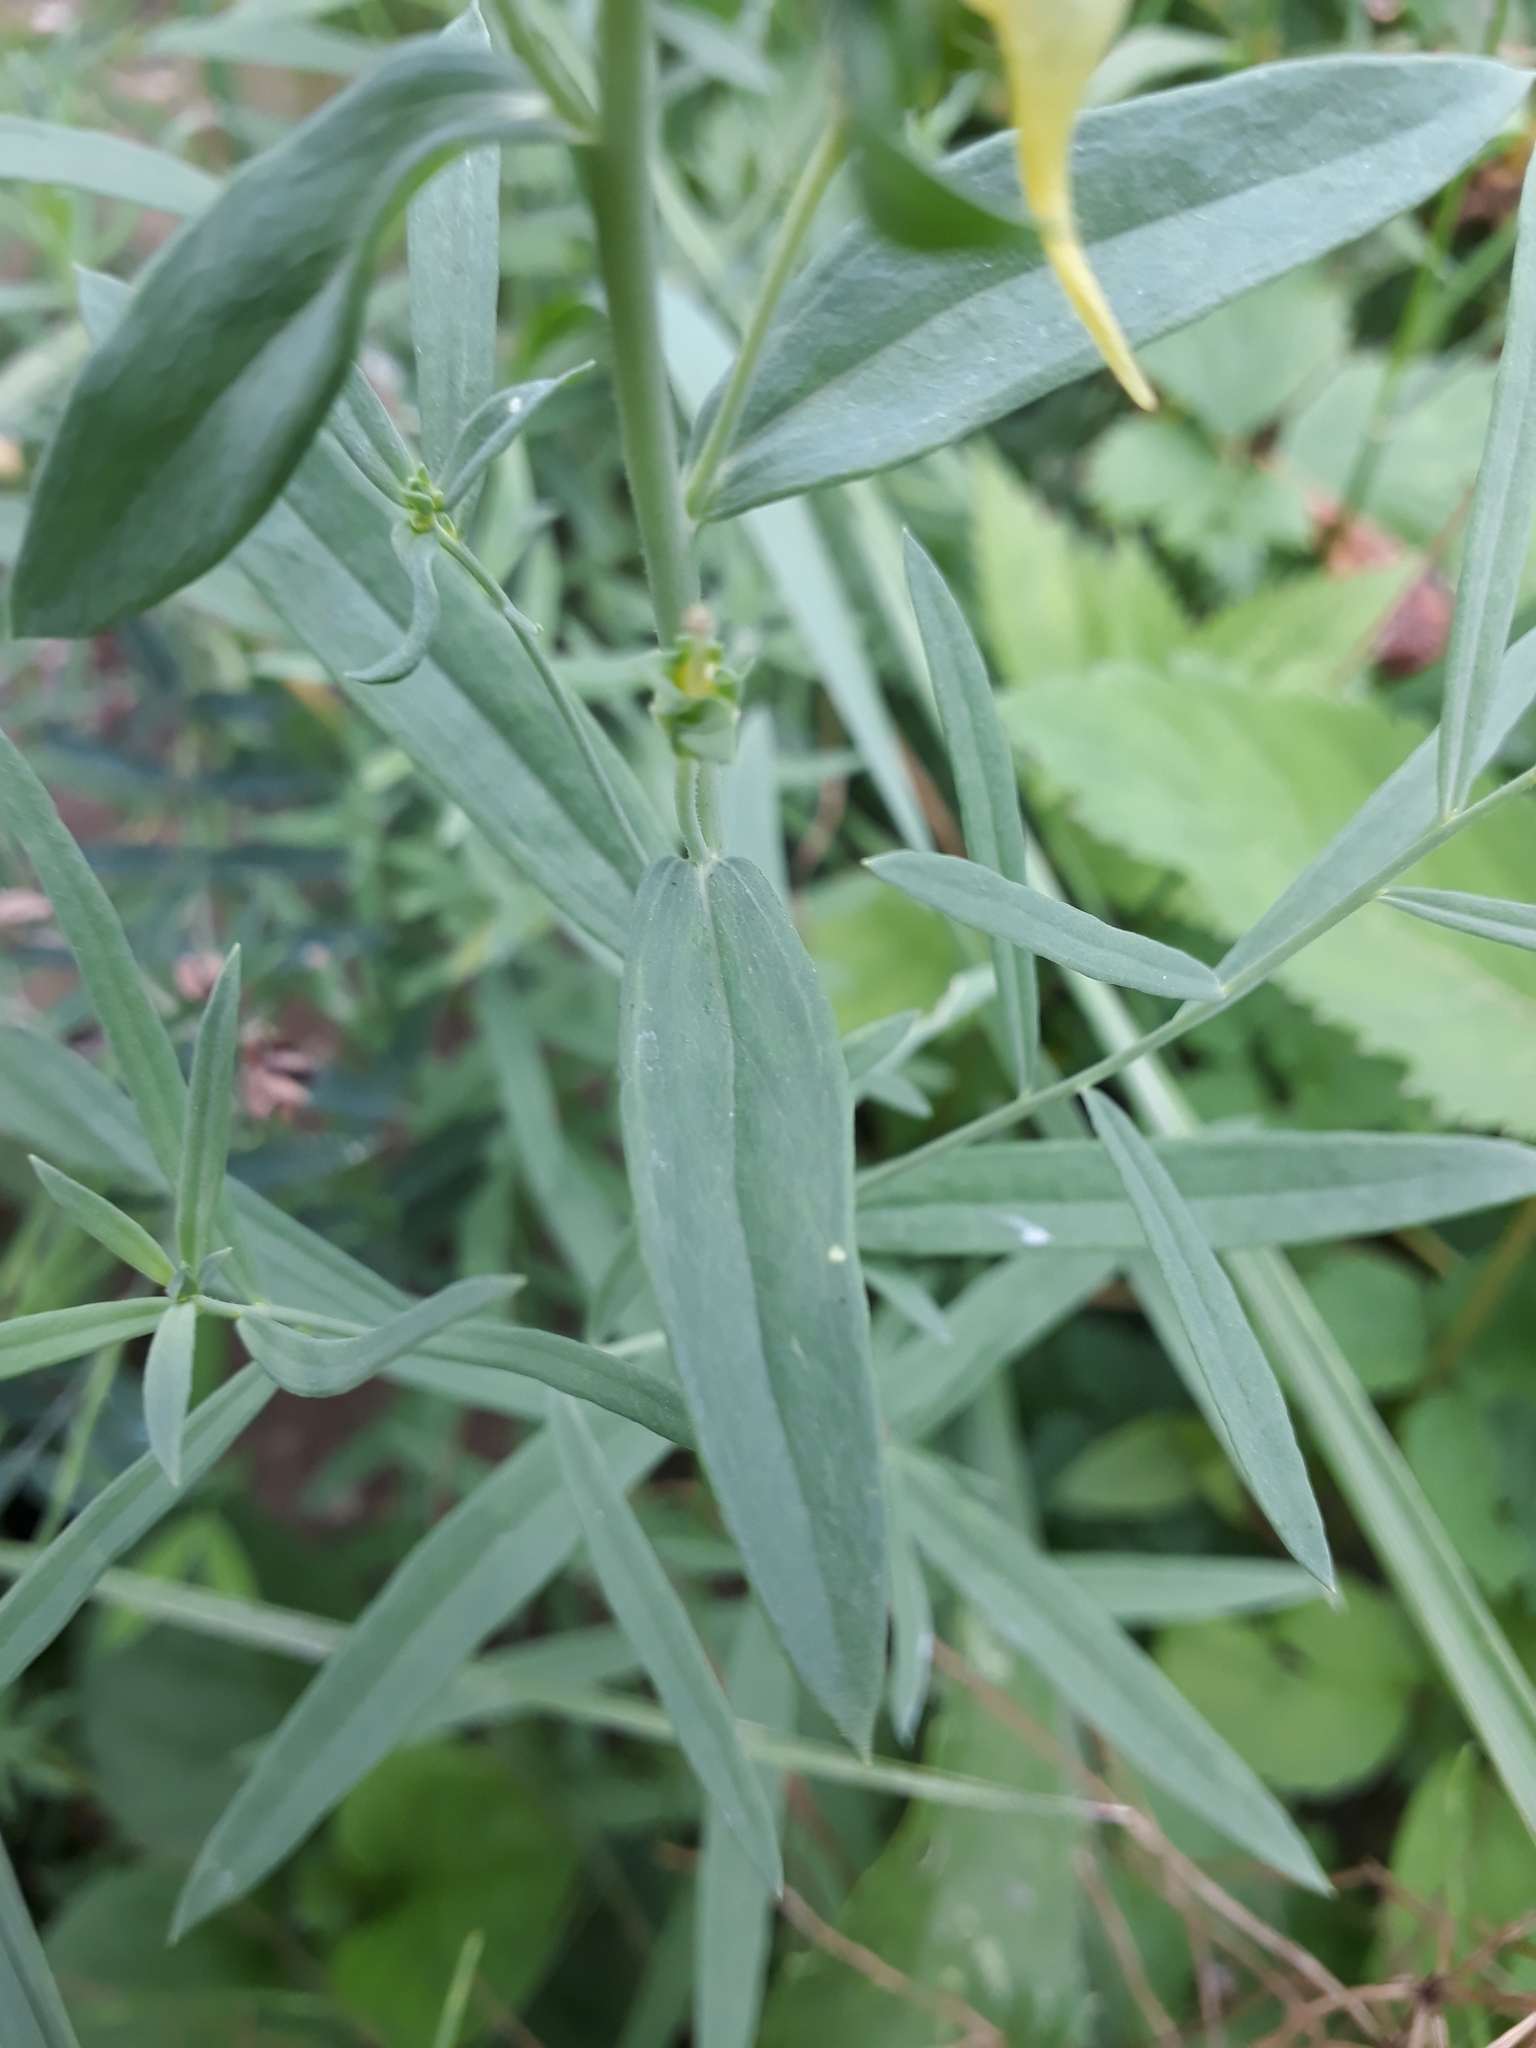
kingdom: Plantae
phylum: Tracheophyta
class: Magnoliopsida
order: Lamiales
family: Plantaginaceae
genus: Linaria
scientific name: Linaria vulgaris
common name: Butter and eggs
